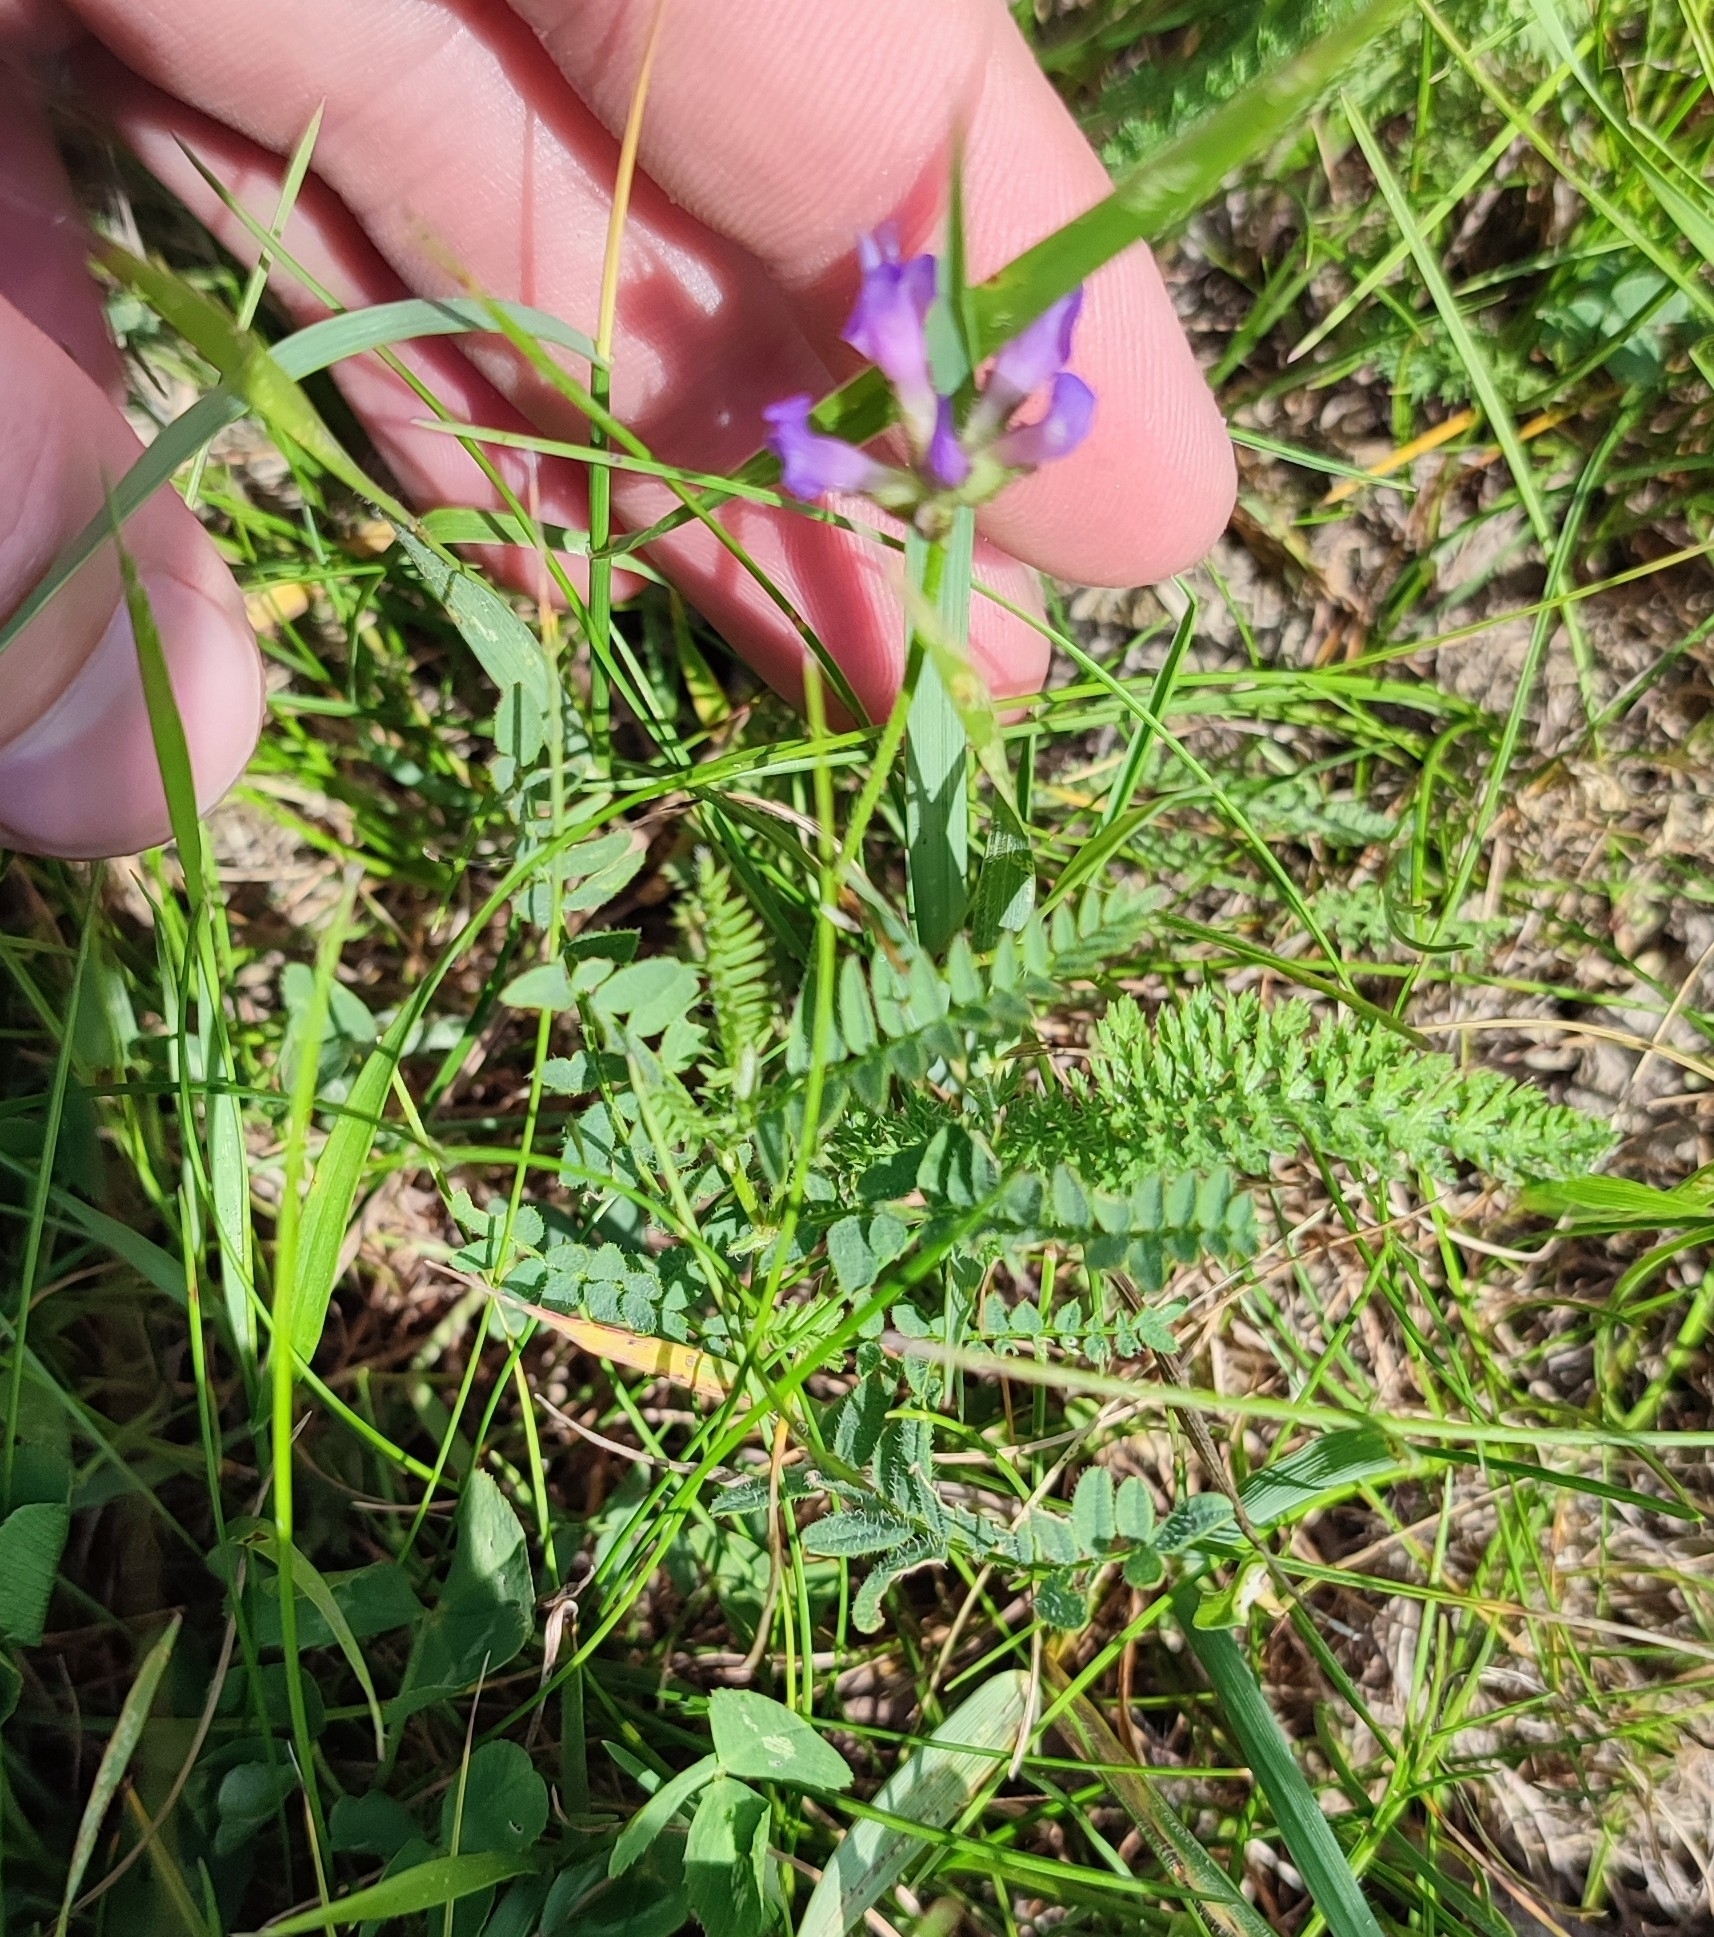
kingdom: Plantae
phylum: Tracheophyta
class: Magnoliopsida
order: Fabales
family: Fabaceae
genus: Astragalus
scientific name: Astragalus danicus
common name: Purple milk-vetch
